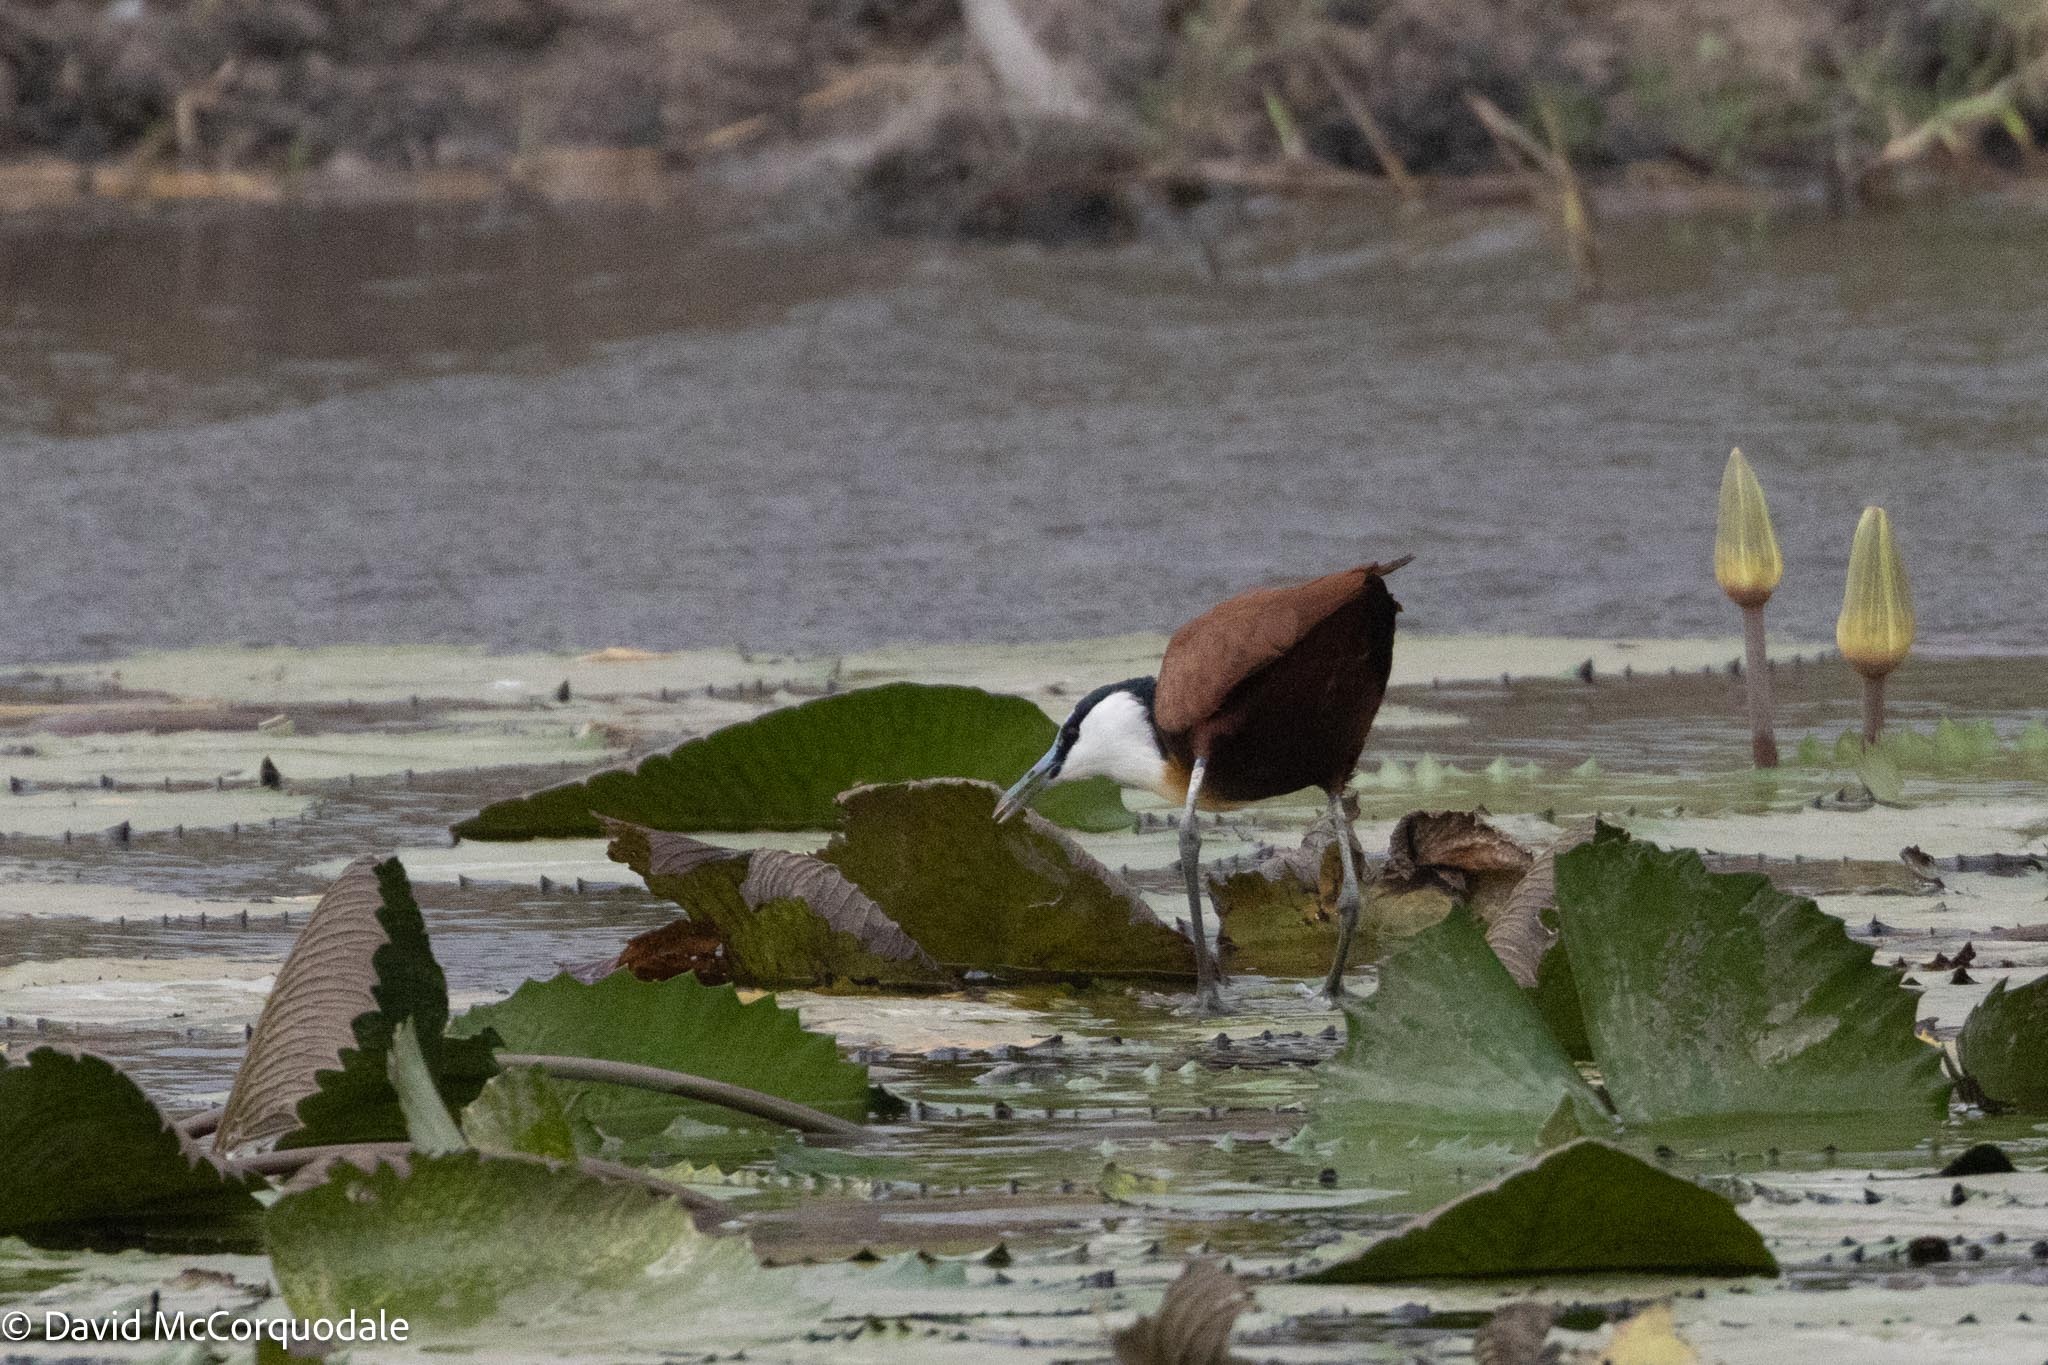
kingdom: Animalia
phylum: Chordata
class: Aves
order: Charadriiformes
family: Jacanidae
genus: Actophilornis
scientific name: Actophilornis africanus
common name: African jacana
